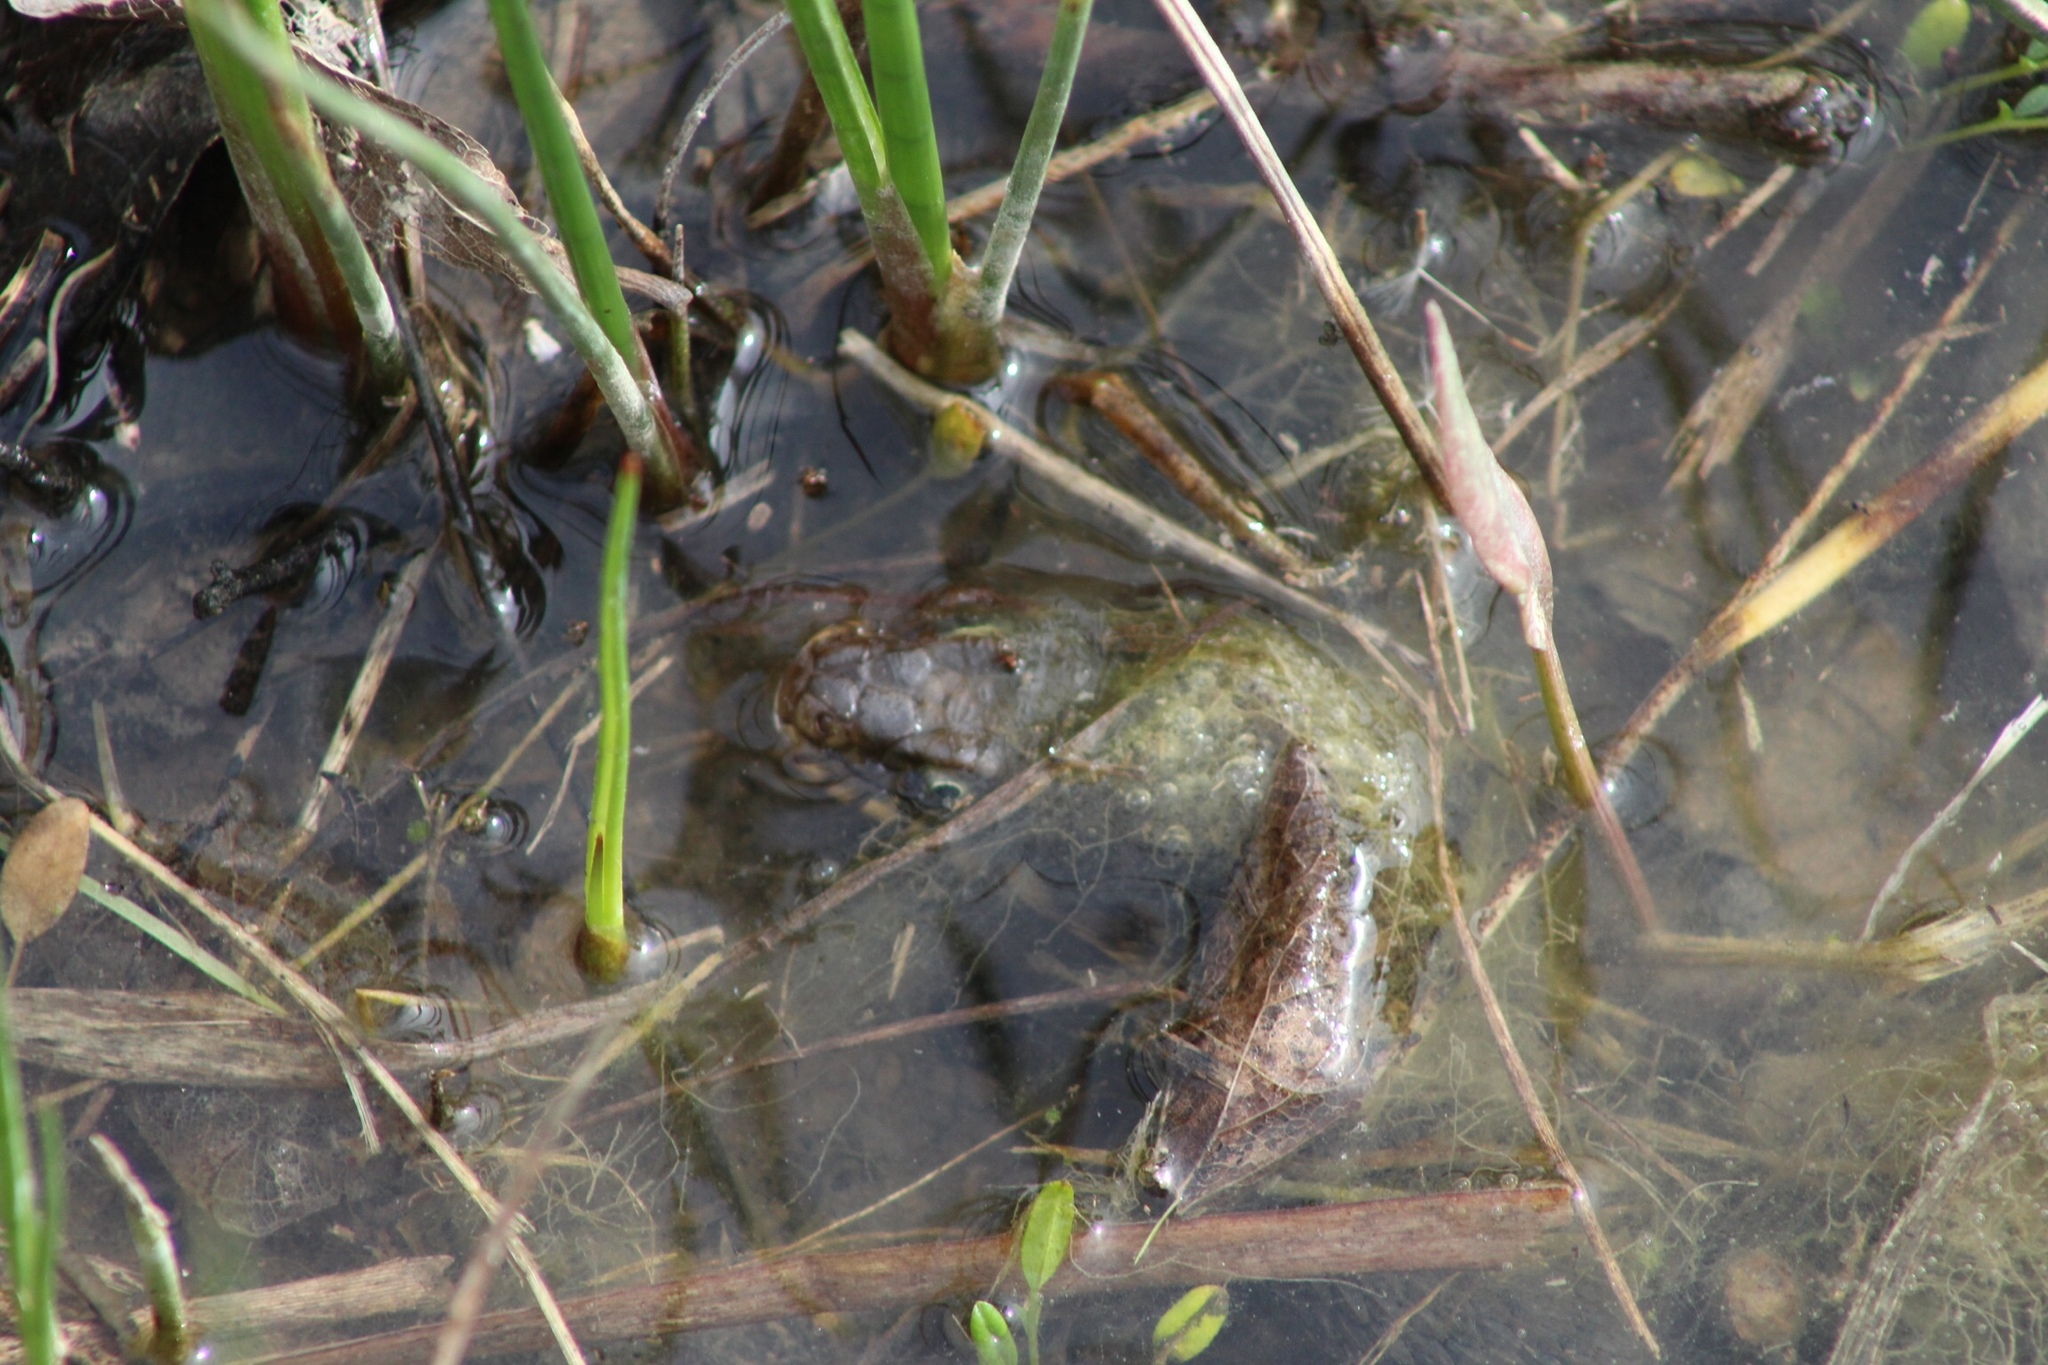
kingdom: Animalia
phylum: Chordata
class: Squamata
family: Colubridae
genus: Nerodia
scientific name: Nerodia erythrogaster
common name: Plainbelly water snake
